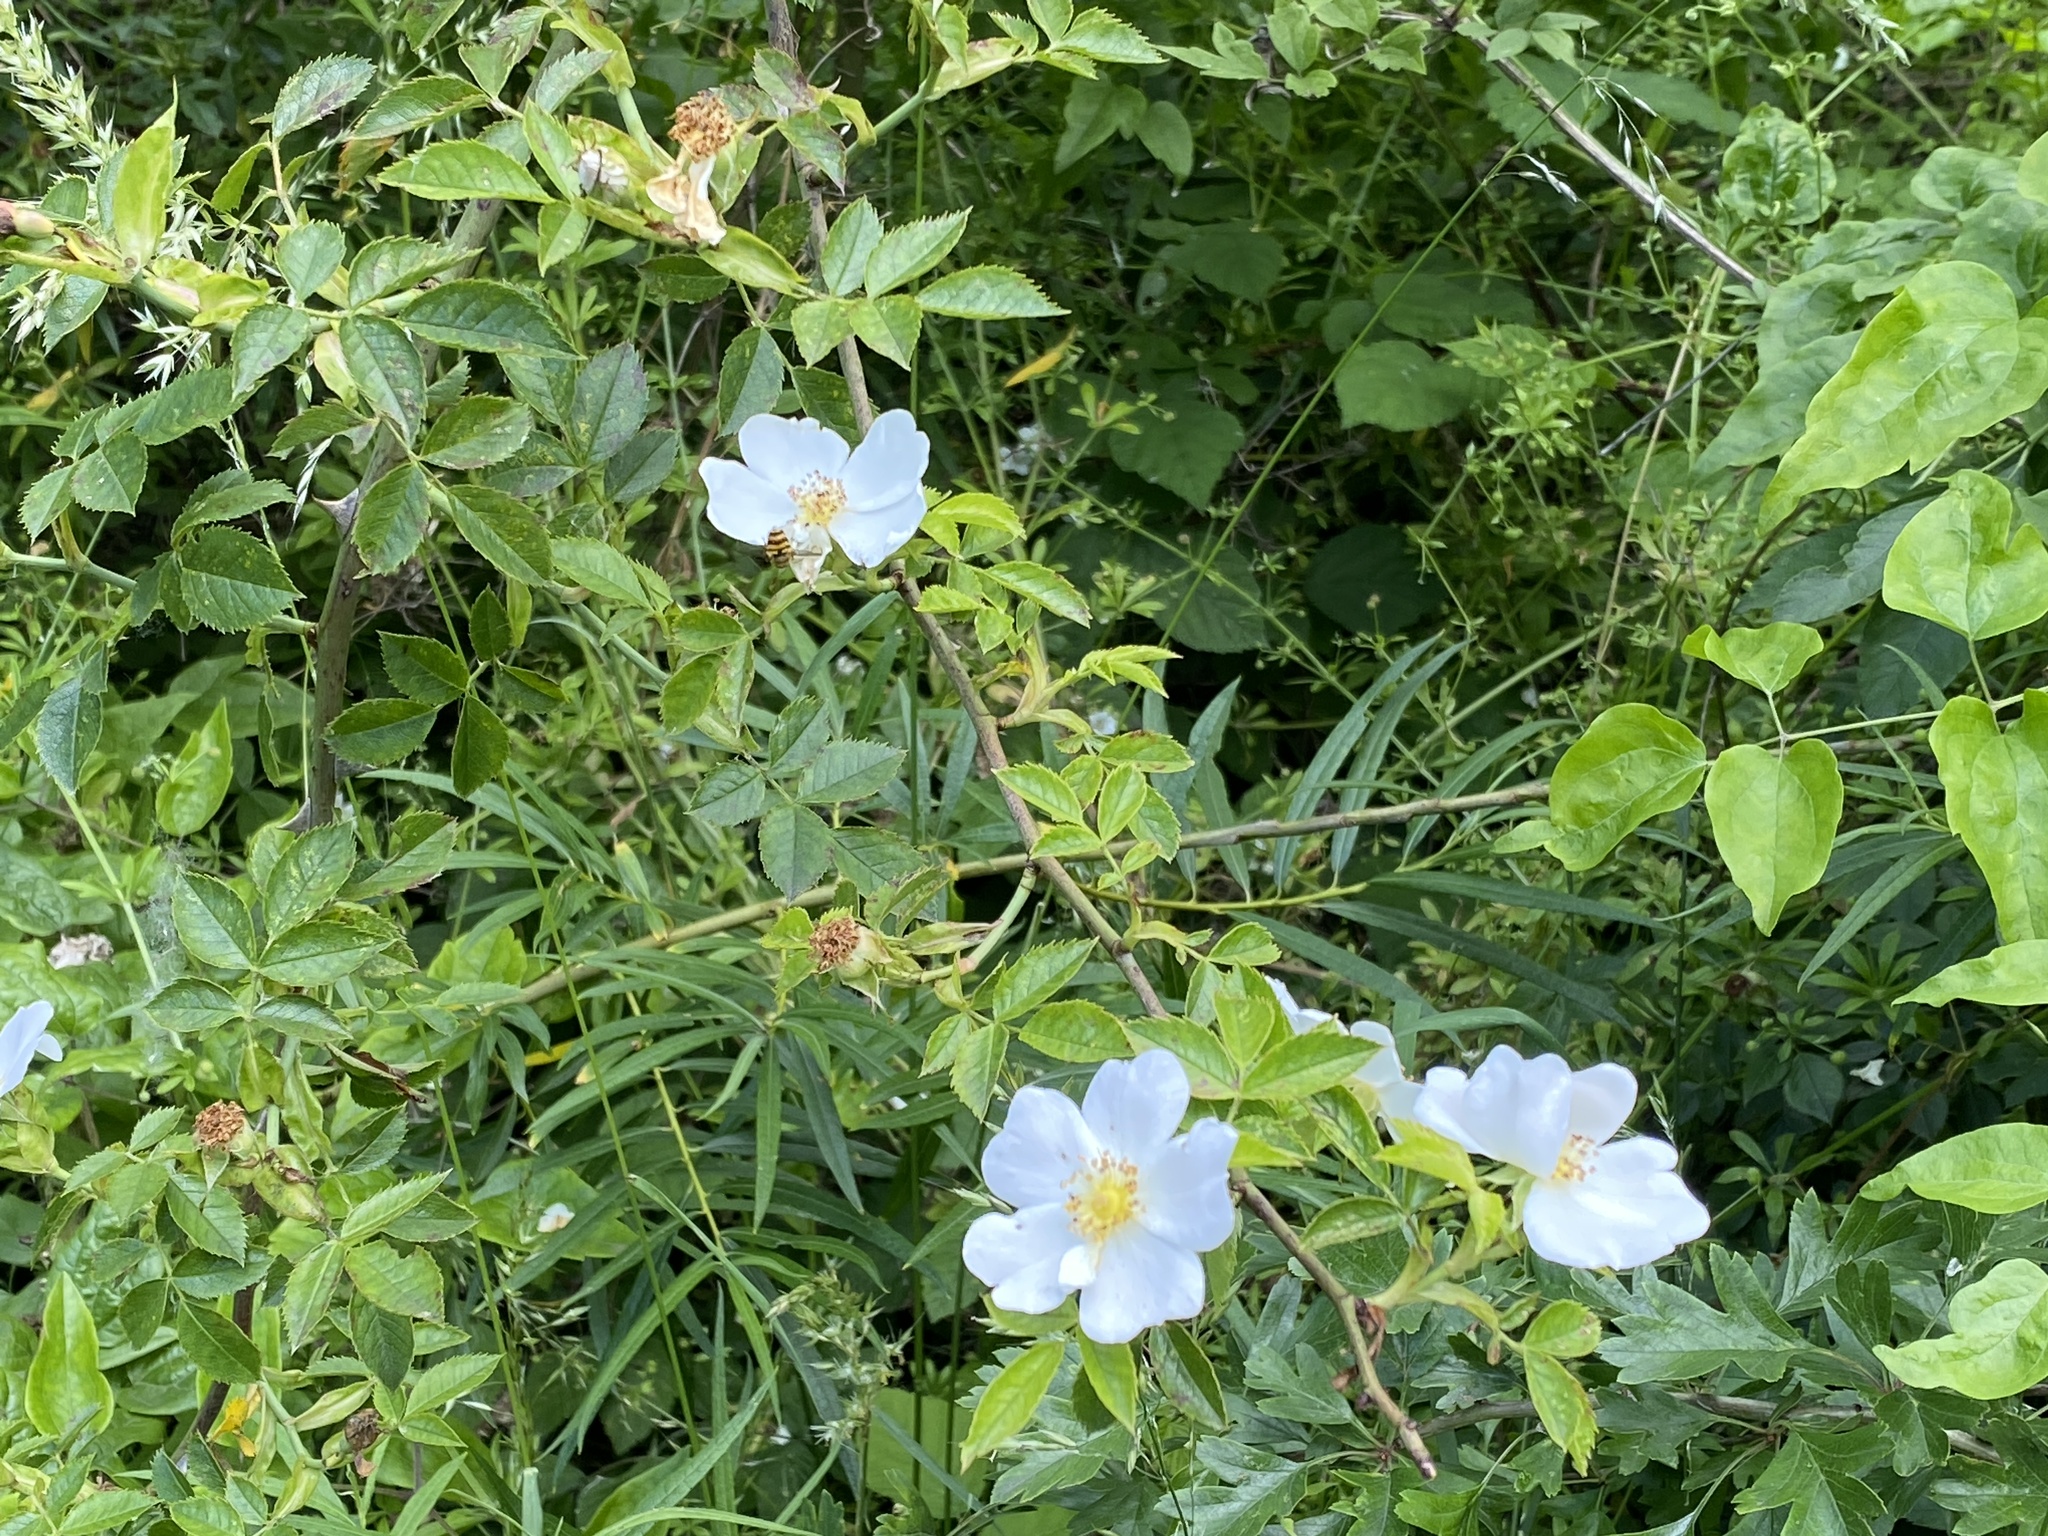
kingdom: Plantae
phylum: Tracheophyta
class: Magnoliopsida
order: Rosales
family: Rosaceae
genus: Rosa
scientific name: Rosa canina
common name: Dog rose
